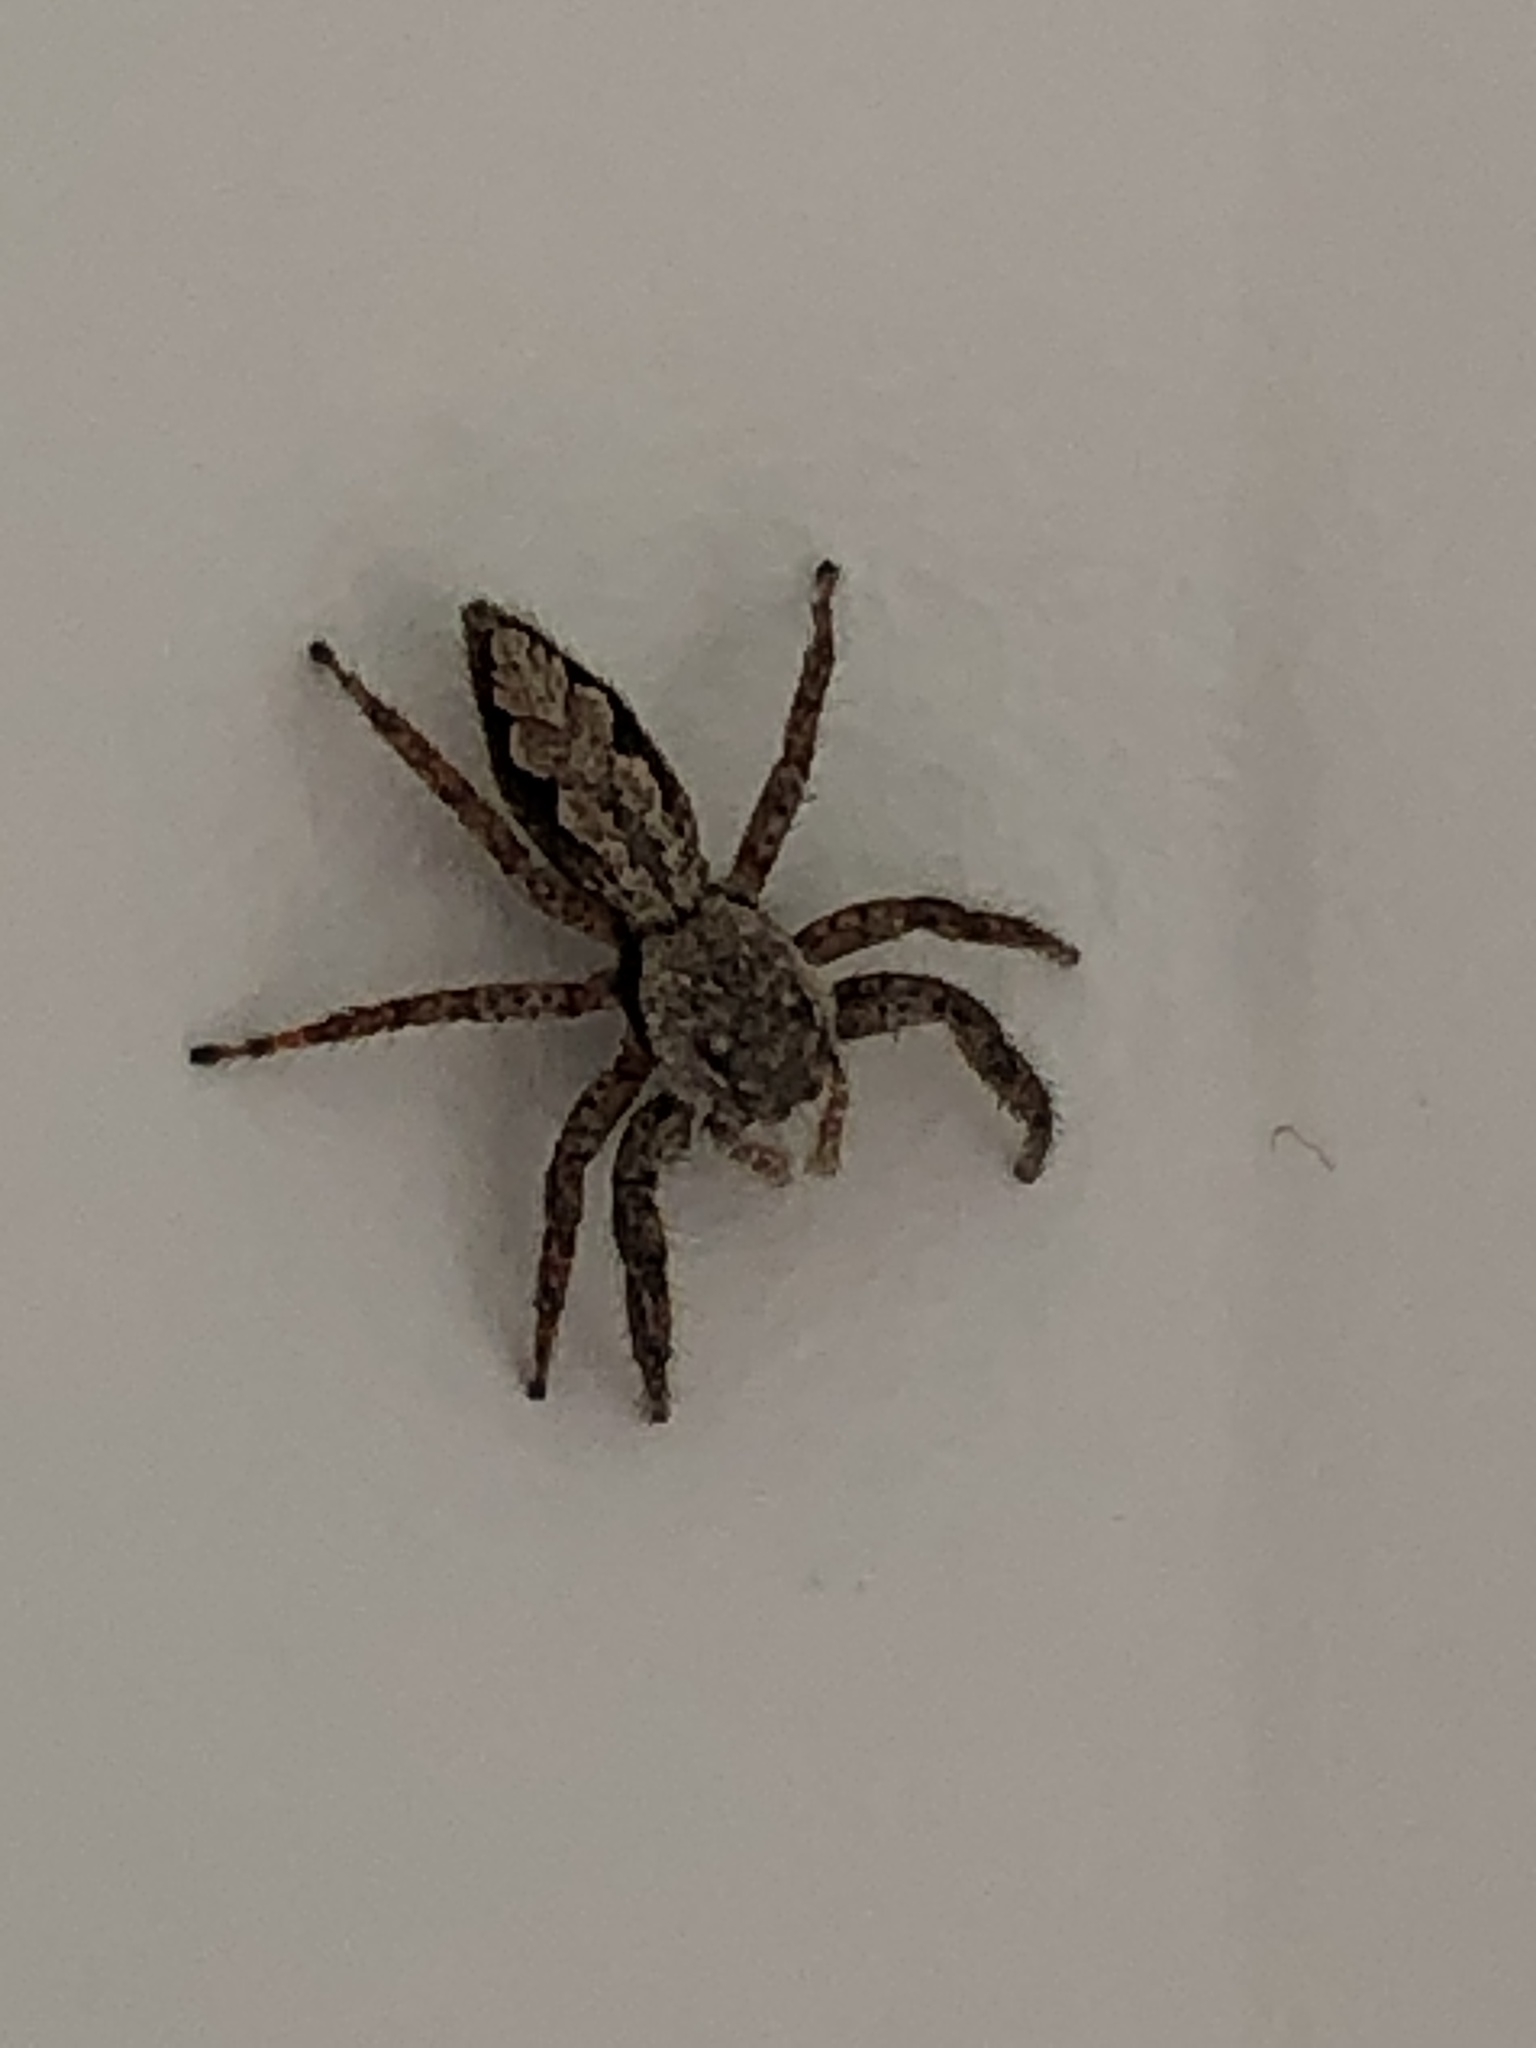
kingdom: Animalia
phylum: Arthropoda
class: Arachnida
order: Araneae
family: Salticidae
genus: Platycryptus
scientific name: Platycryptus undatus
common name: Tan jumping spider
